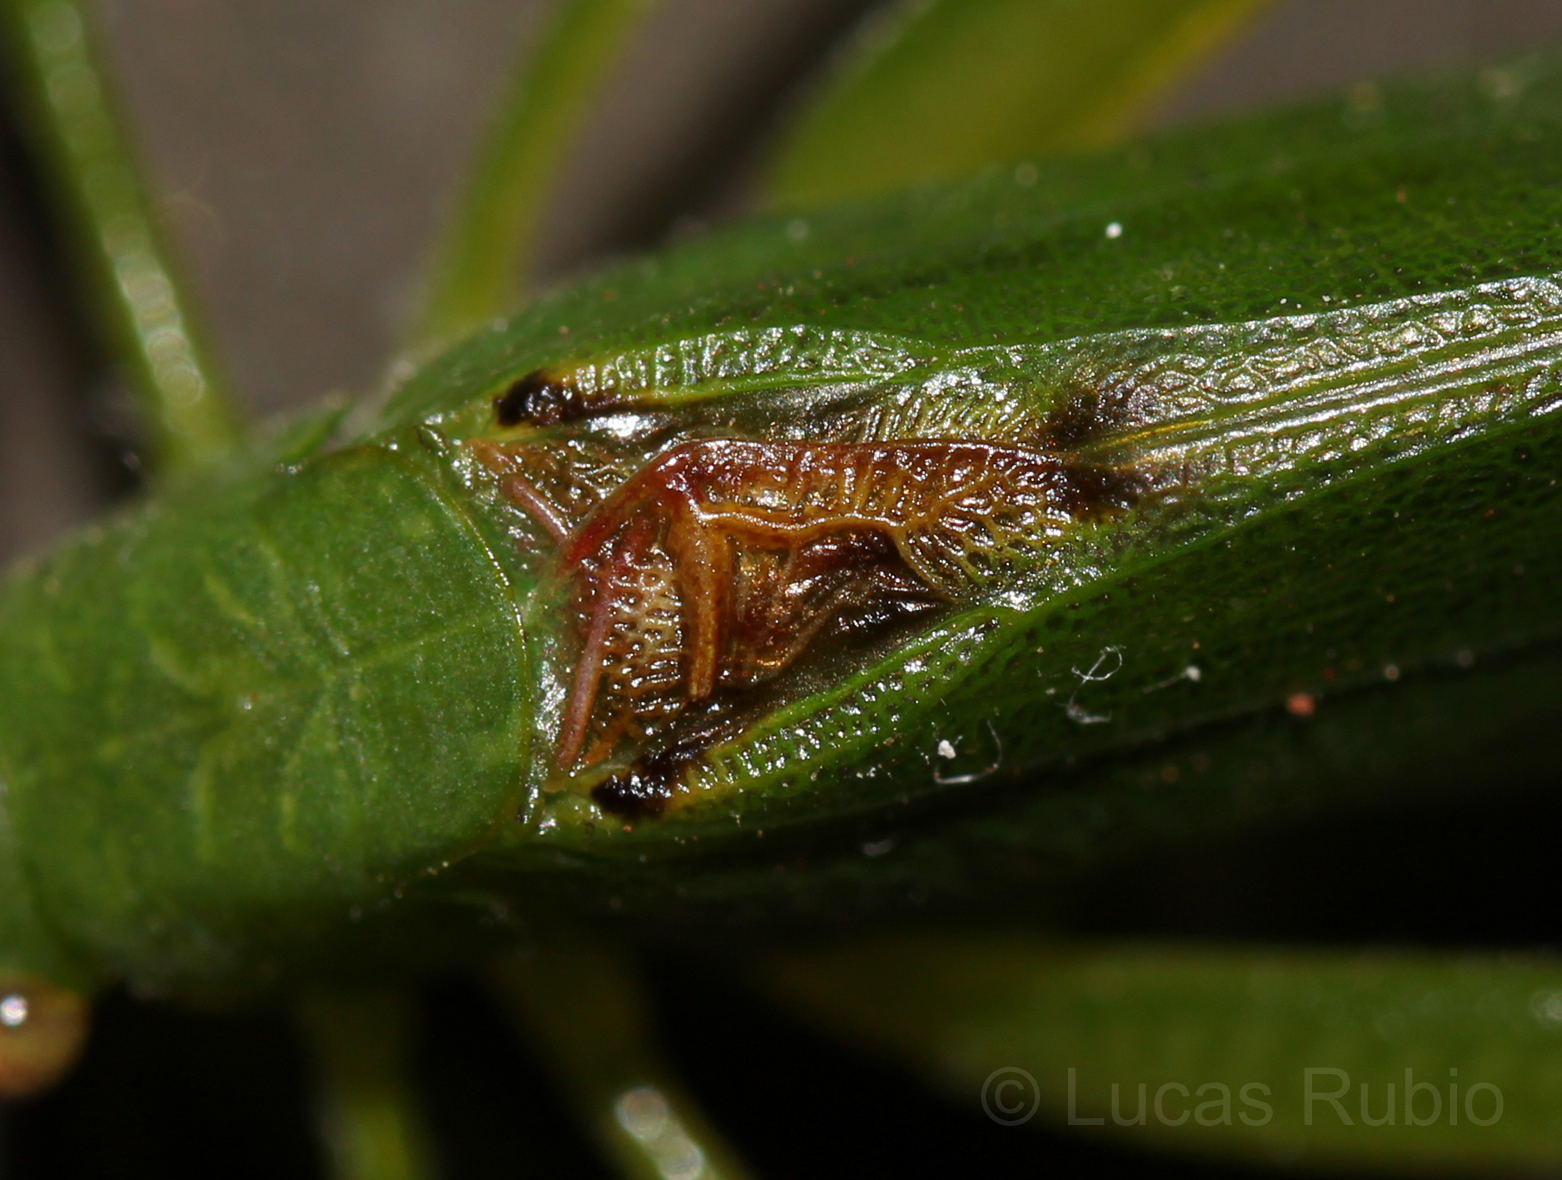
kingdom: Animalia
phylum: Arthropoda
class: Insecta
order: Orthoptera
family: Tettigoniidae
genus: Anaulacomera
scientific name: Anaulacomera argentina
